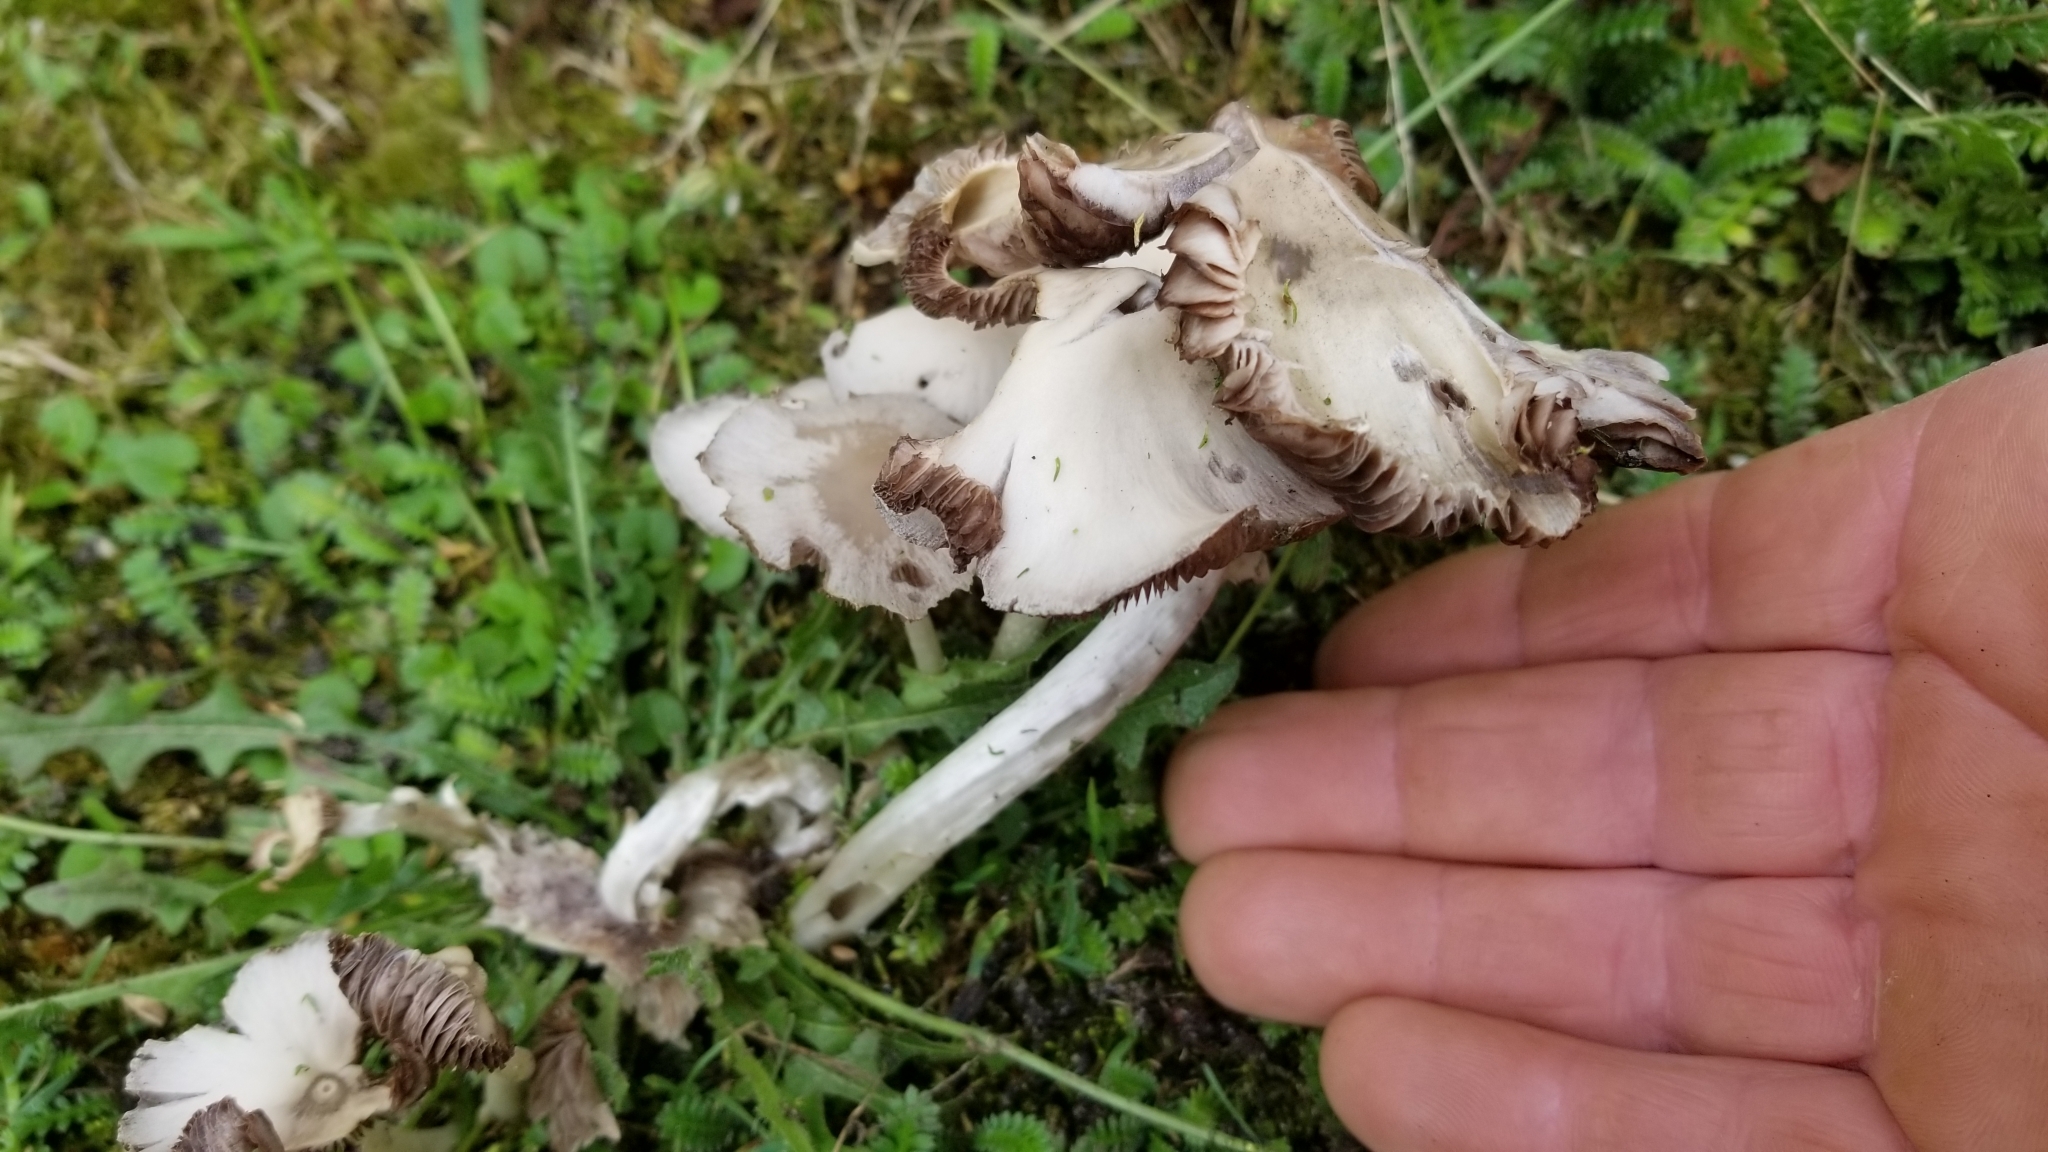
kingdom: Fungi
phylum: Basidiomycota
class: Agaricomycetes
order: Agaricales
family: Psathyrellaceae
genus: Candolleomyces
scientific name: Candolleomyces candolleanus
